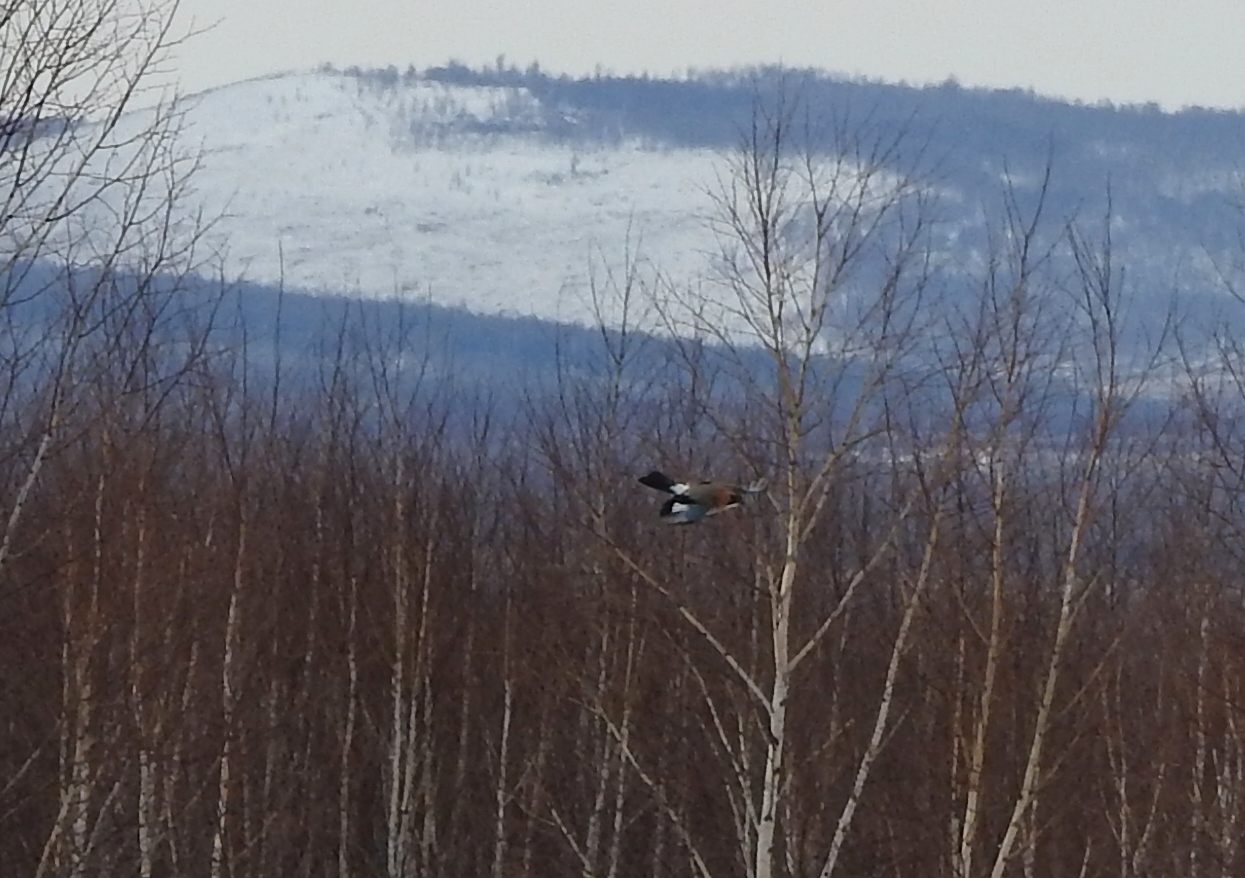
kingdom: Animalia
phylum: Chordata
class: Aves
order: Passeriformes
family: Corvidae
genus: Garrulus
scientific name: Garrulus glandarius
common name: Eurasian jay
